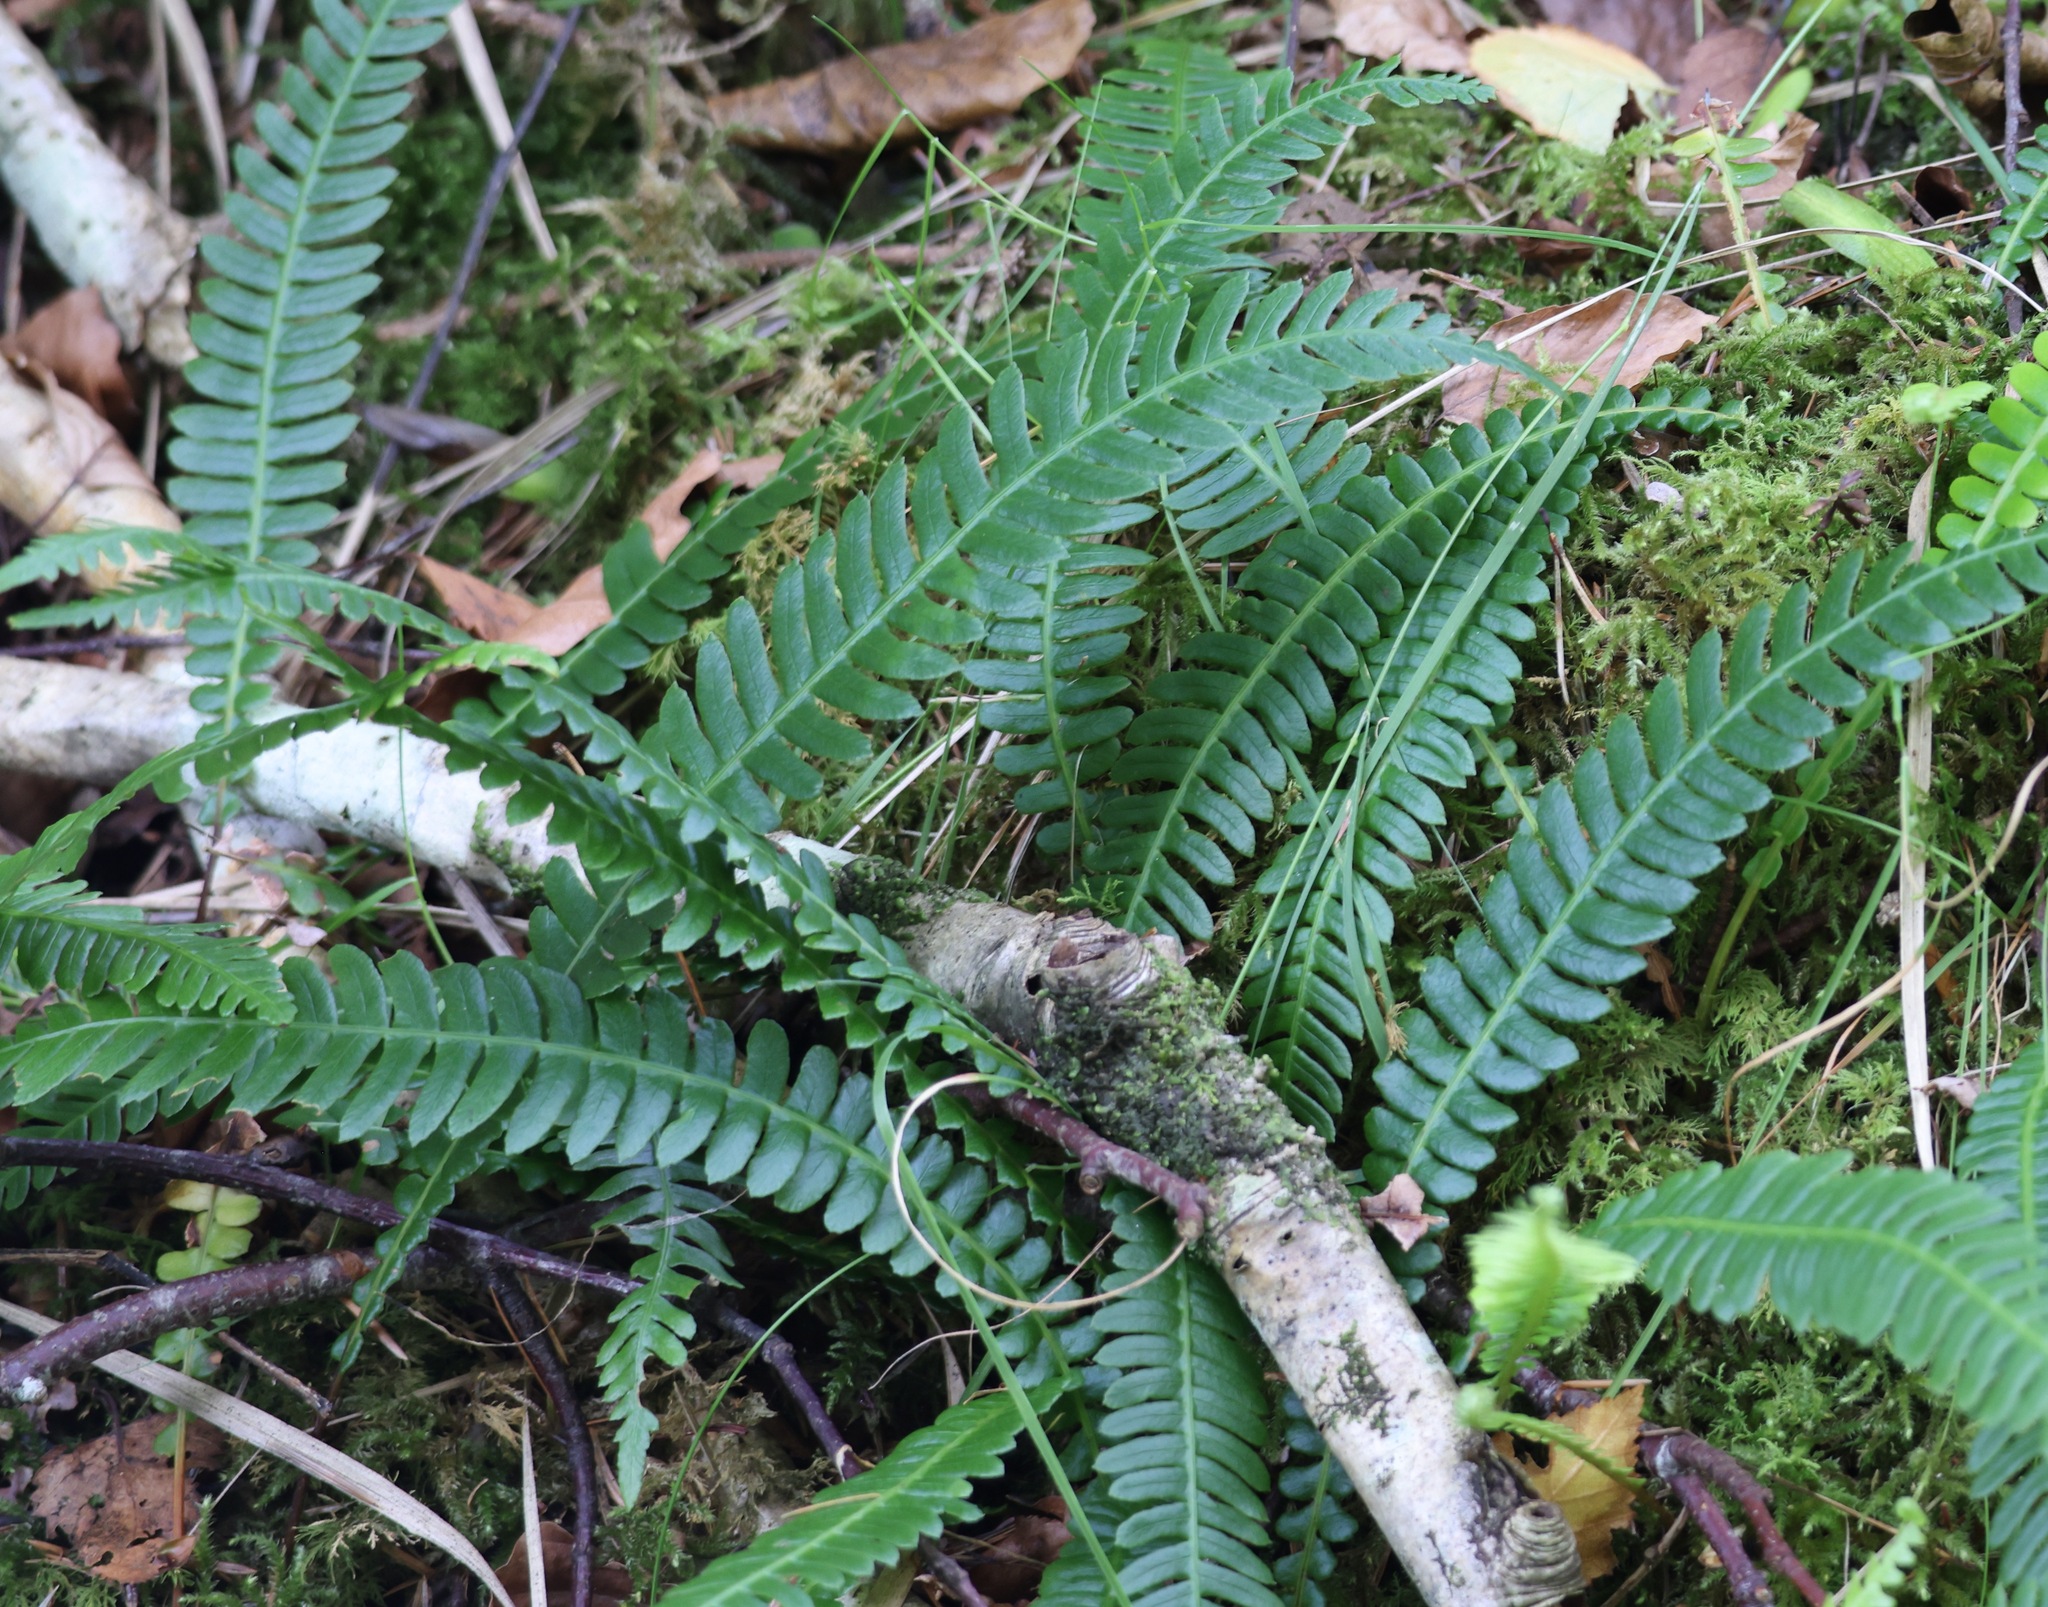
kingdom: Plantae
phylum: Tracheophyta
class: Polypodiopsida
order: Polypodiales
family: Blechnaceae
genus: Struthiopteris
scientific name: Struthiopteris spicant
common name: Deer fern
